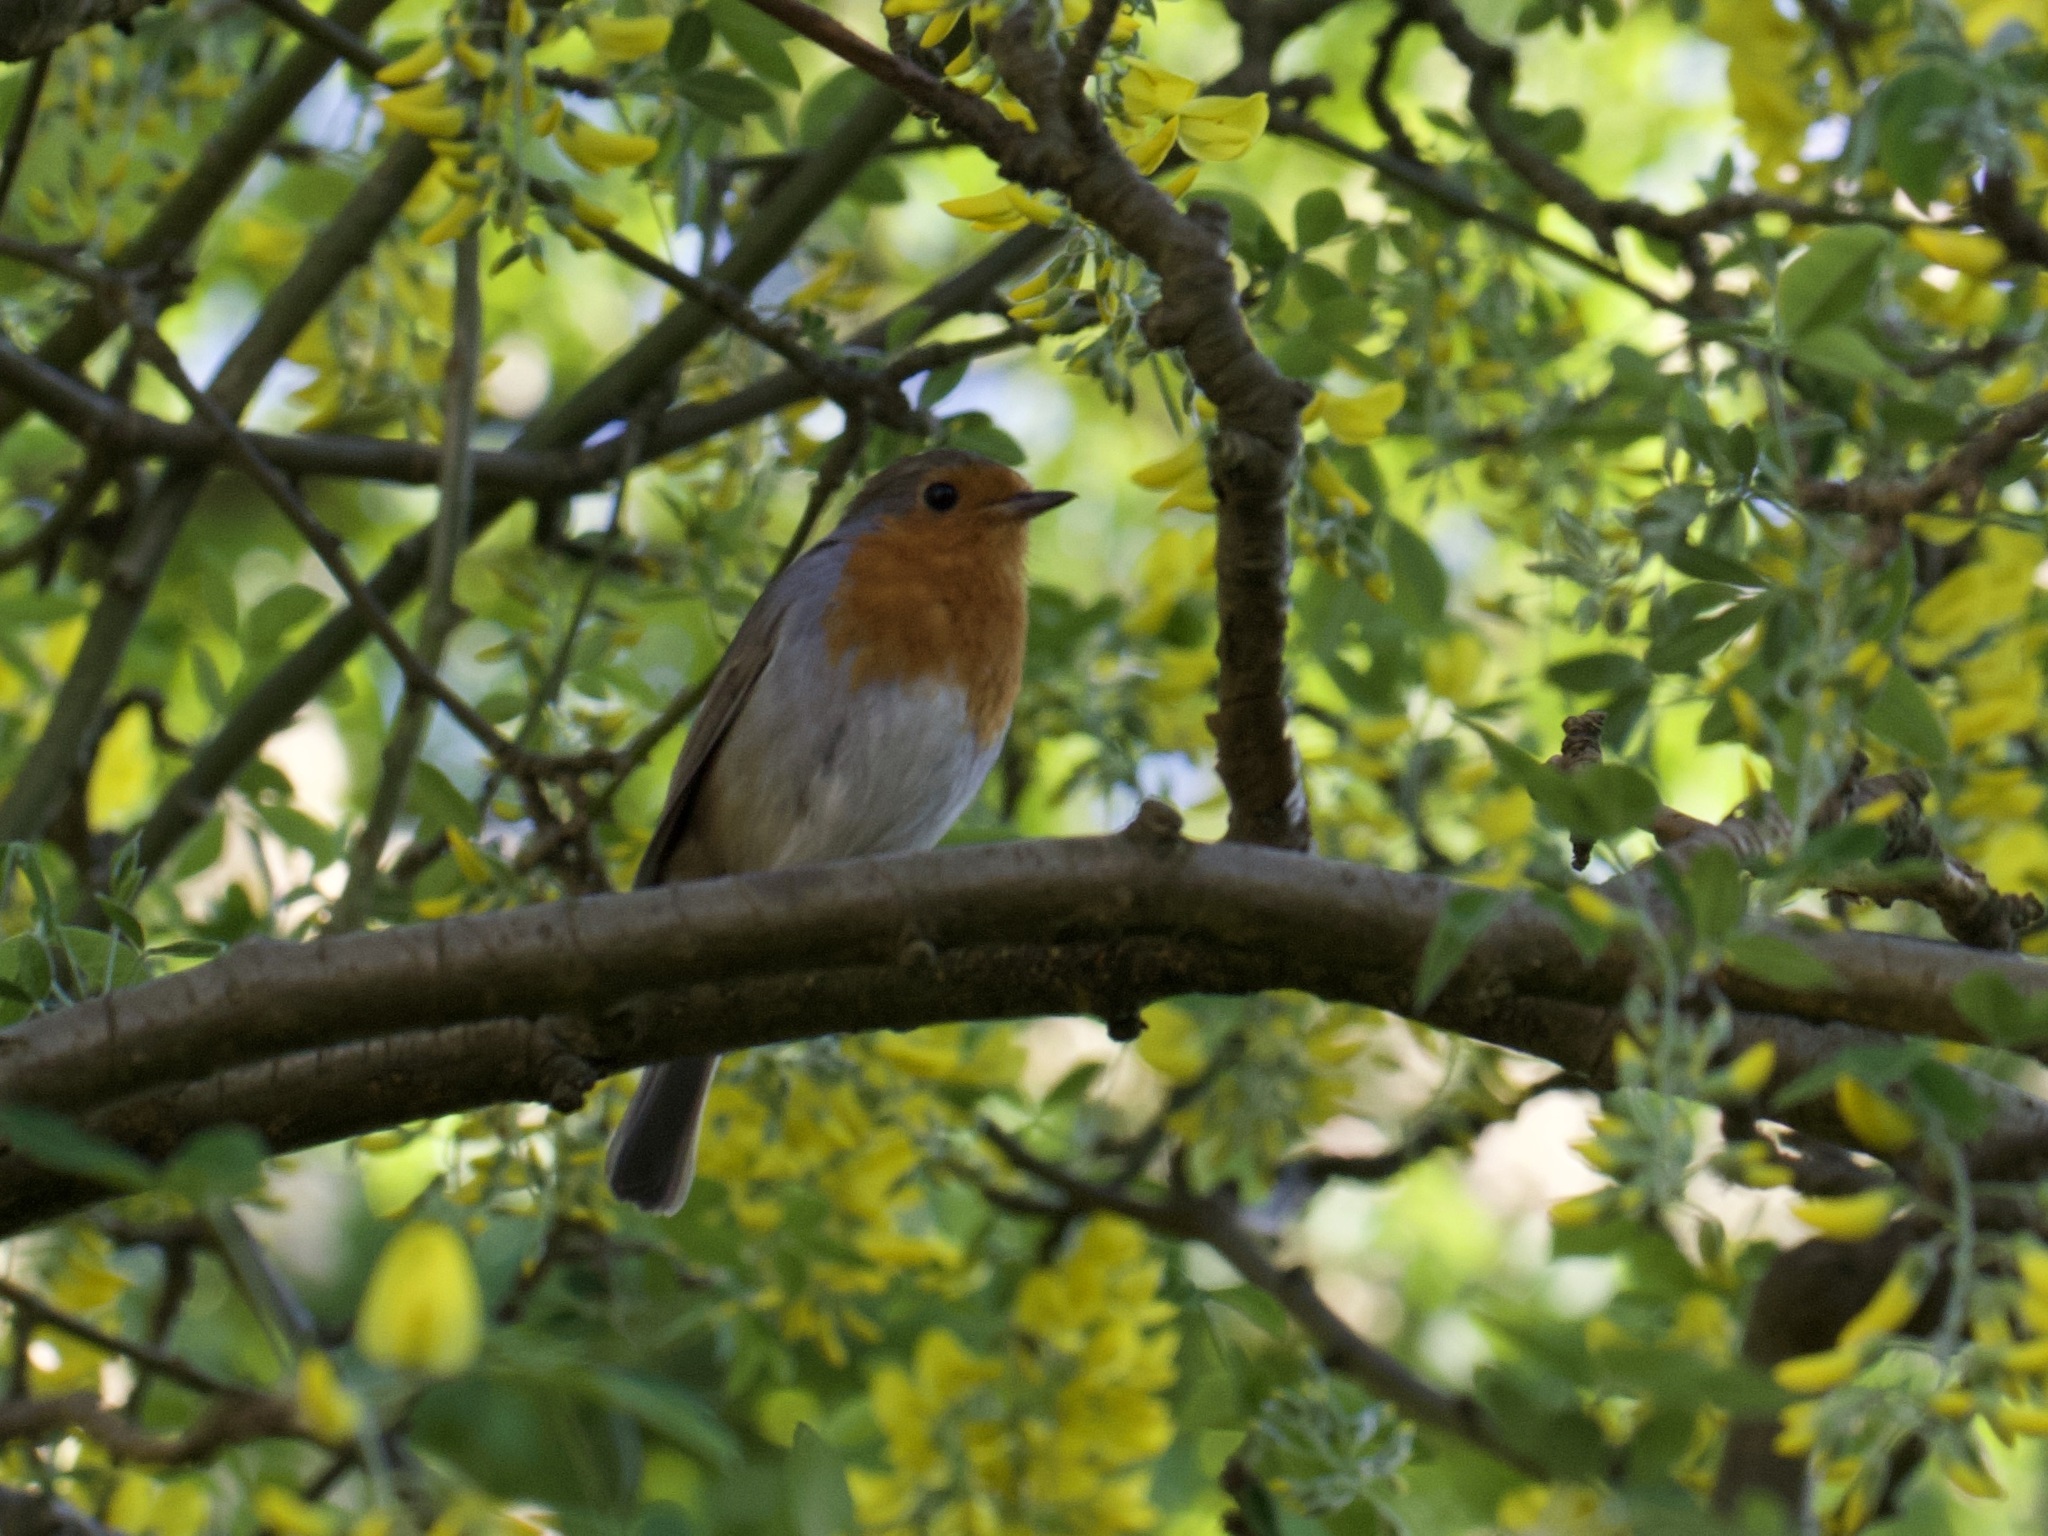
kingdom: Animalia
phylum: Chordata
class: Aves
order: Passeriformes
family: Muscicapidae
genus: Erithacus
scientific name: Erithacus rubecula
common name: European robin
